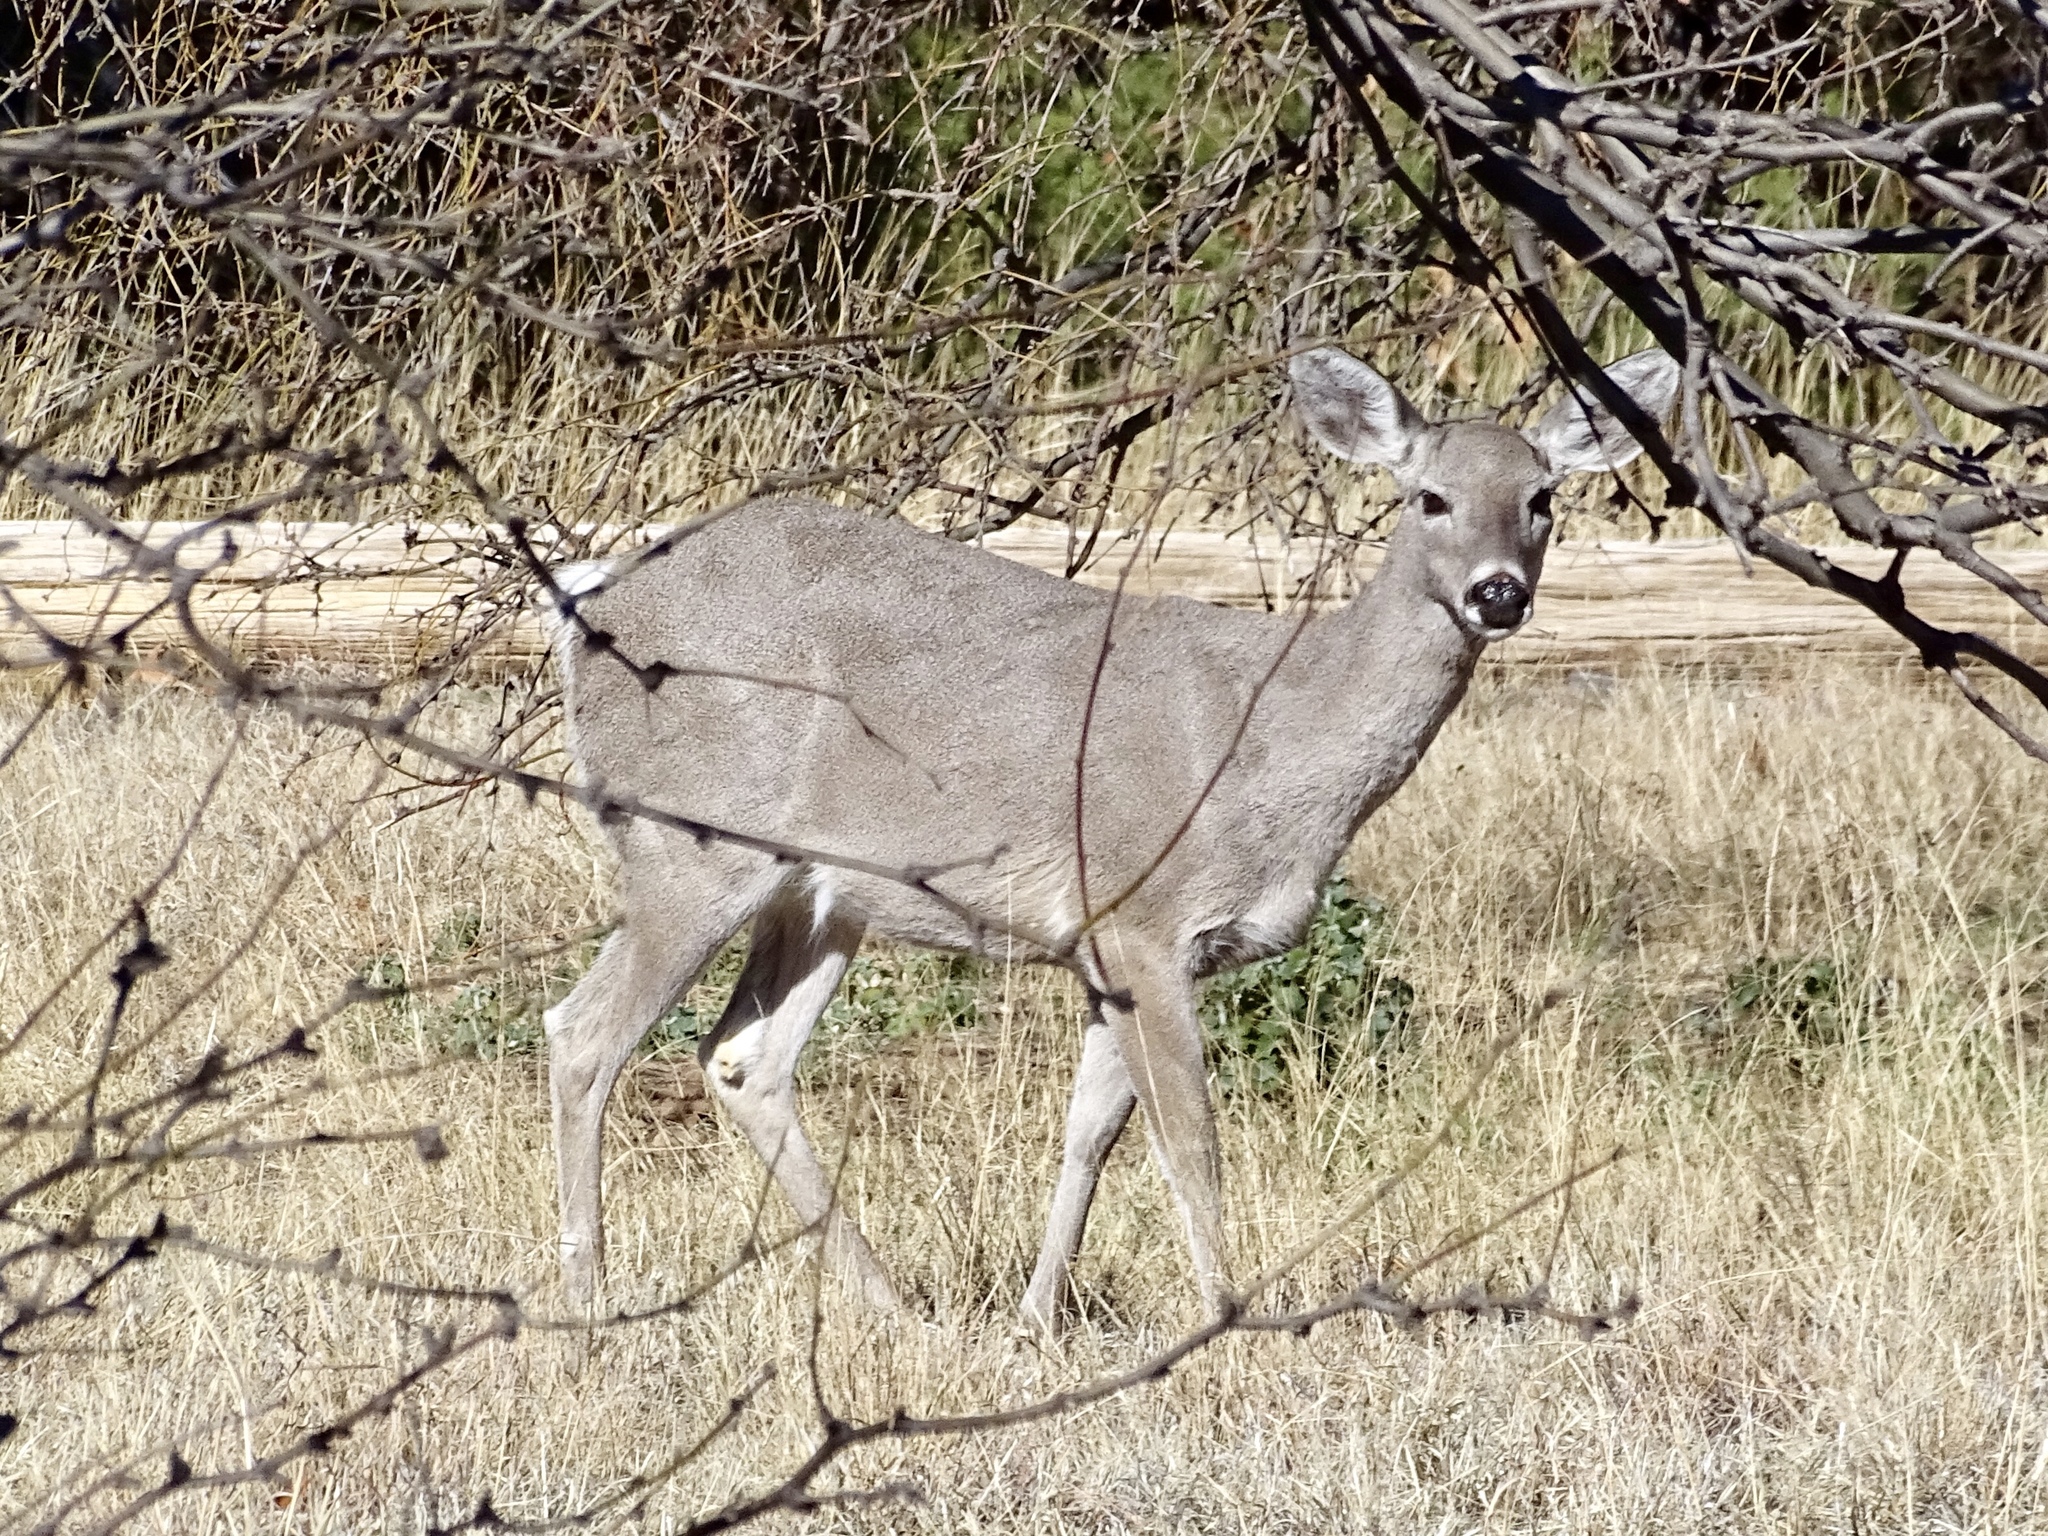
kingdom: Animalia
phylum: Chordata
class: Mammalia
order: Artiodactyla
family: Cervidae
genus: Odocoileus
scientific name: Odocoileus virginianus
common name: White-tailed deer
